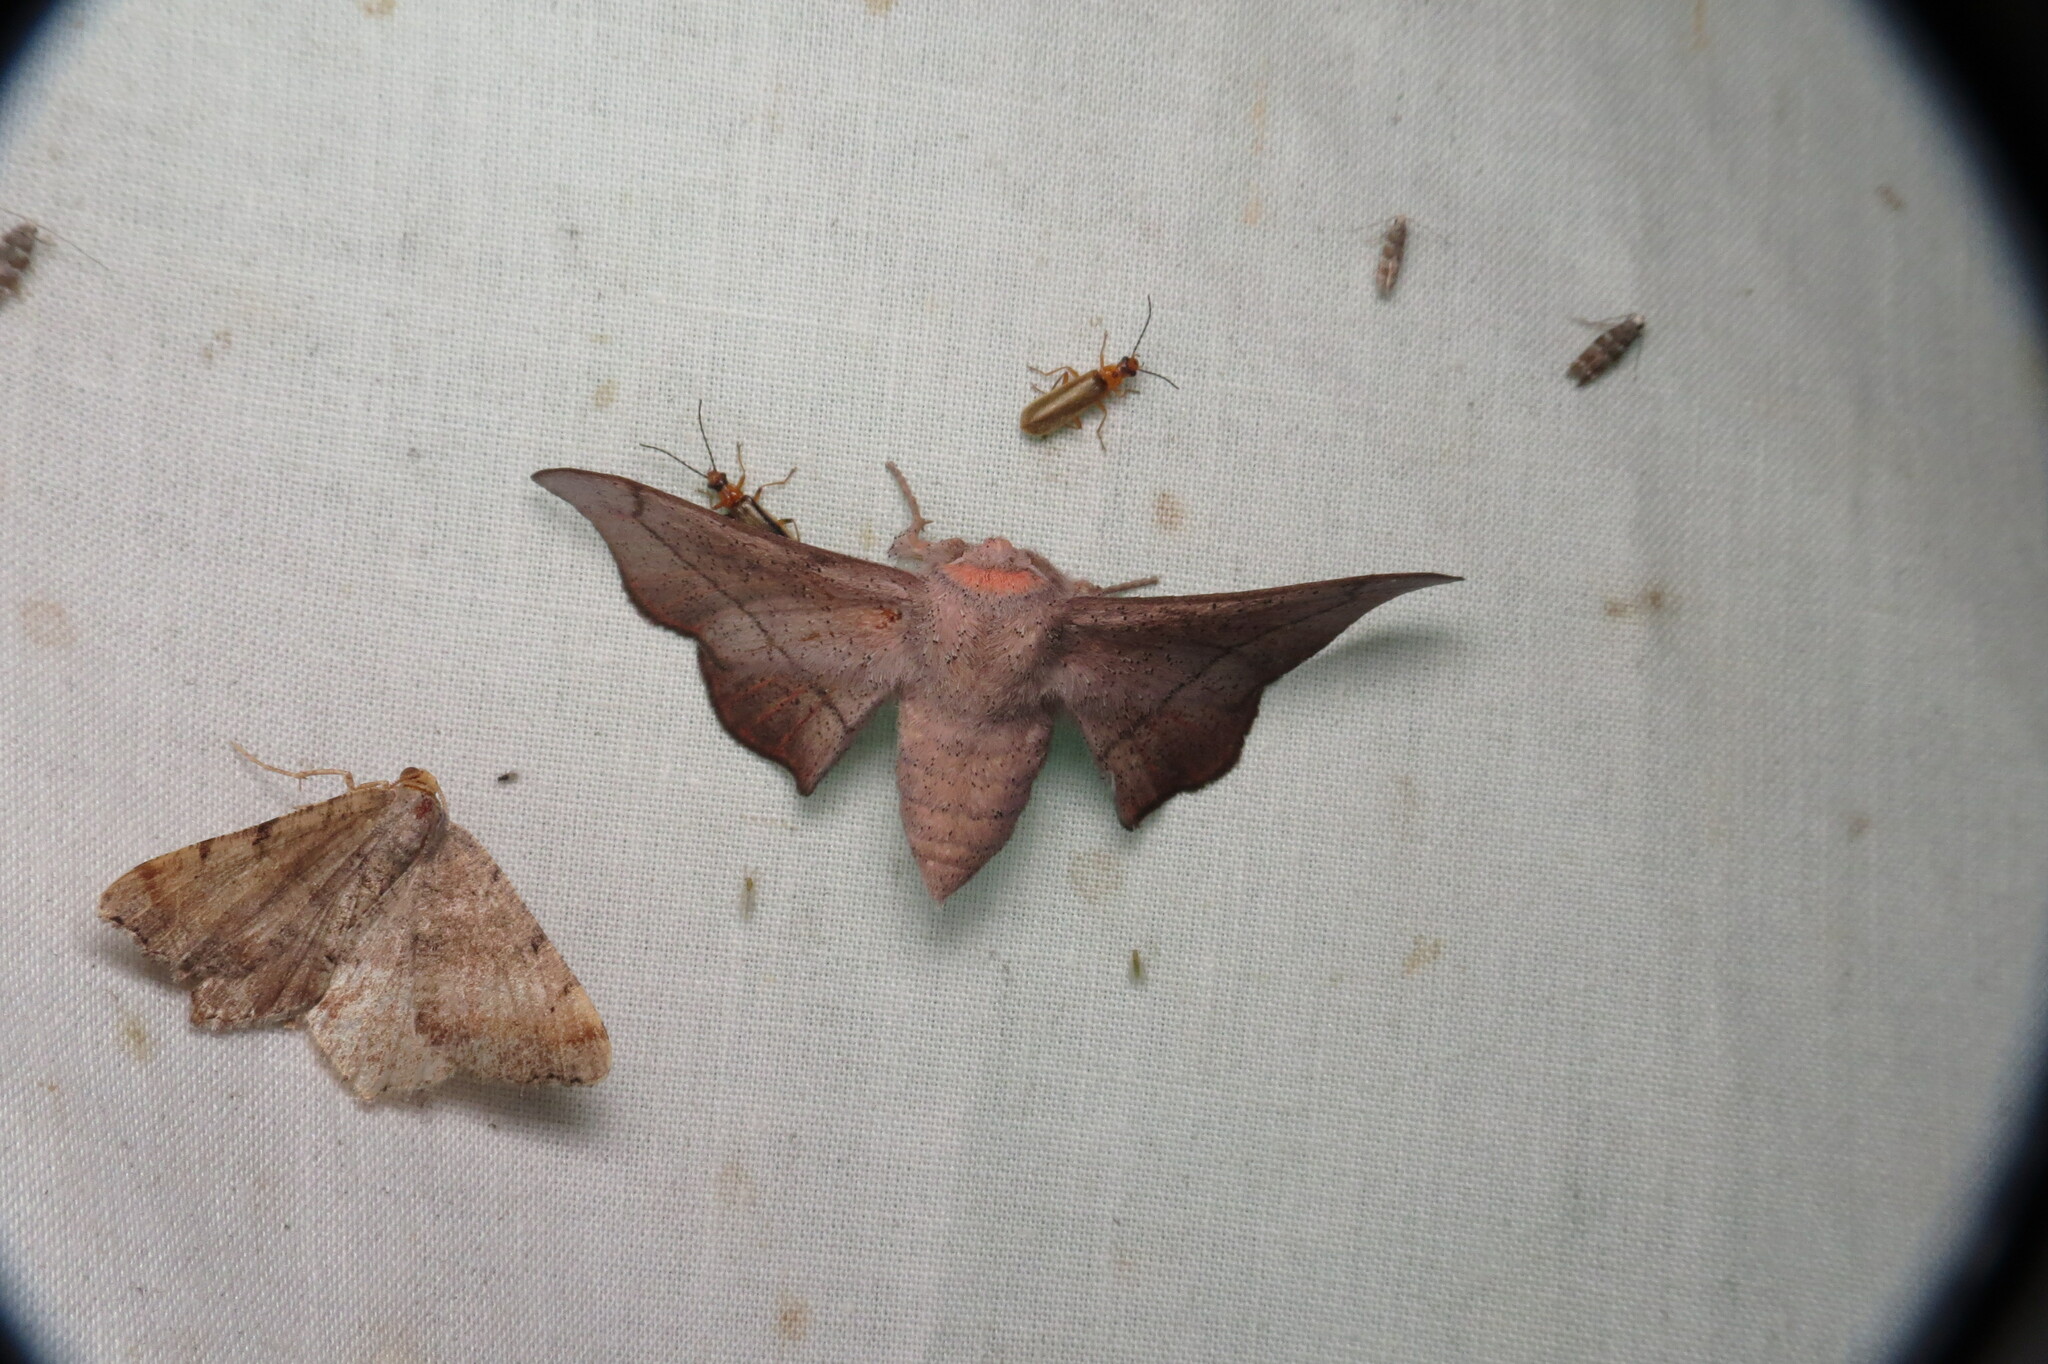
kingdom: Animalia
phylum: Arthropoda
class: Insecta
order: Lepidoptera
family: Mimallonidae
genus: Cicinnus
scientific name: Cicinnus melsheimeri
